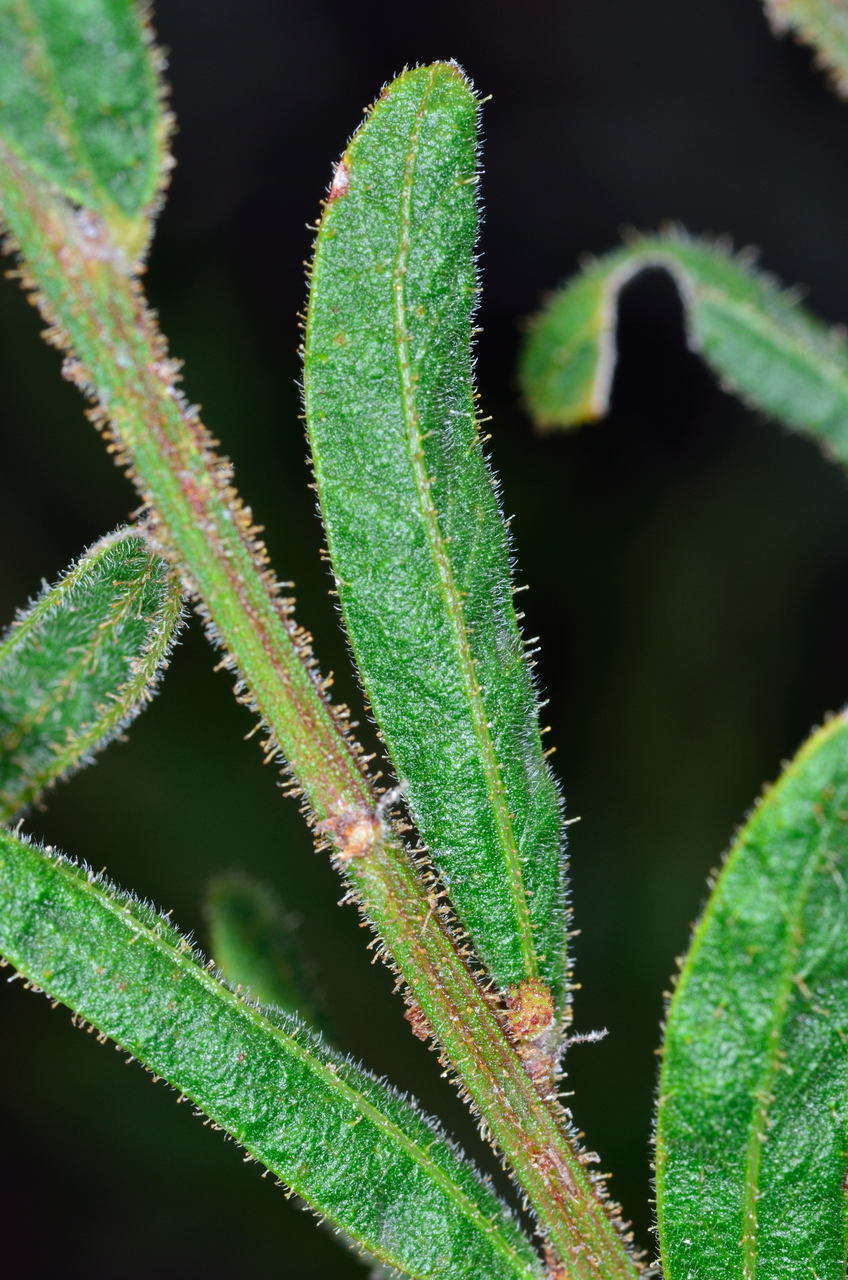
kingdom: Plantae
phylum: Tracheophyta
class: Magnoliopsida
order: Fabales
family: Fabaceae
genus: Acacia
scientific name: Acacia aspera
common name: Rough wattle
